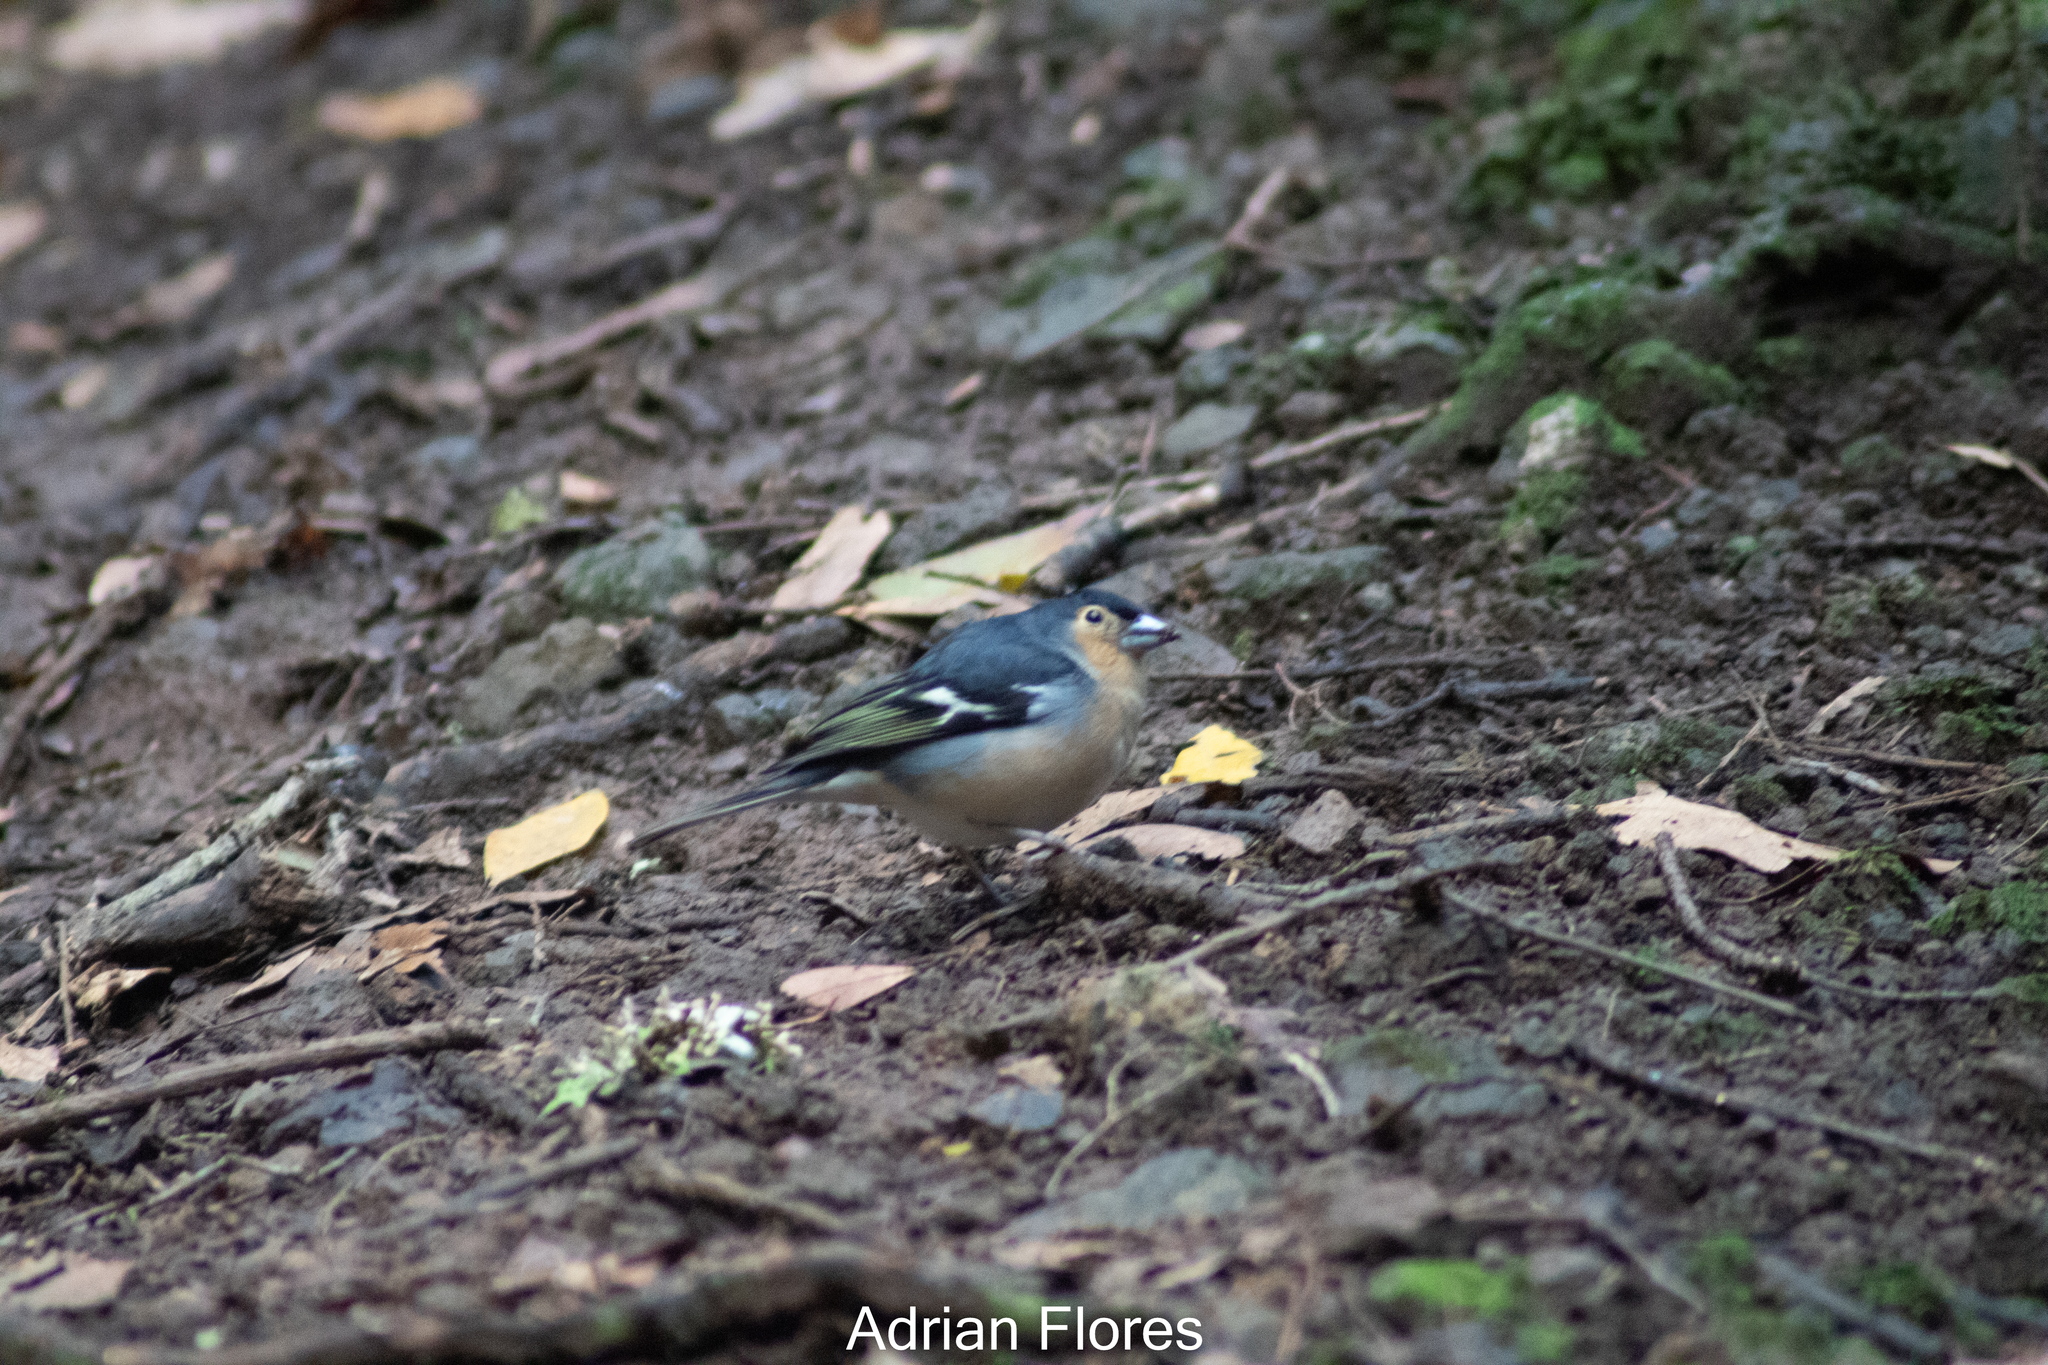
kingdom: Animalia
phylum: Chordata
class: Aves
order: Passeriformes
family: Fringillidae
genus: Fringilla
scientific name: Fringilla canariensis
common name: Canary islands chaffinch
